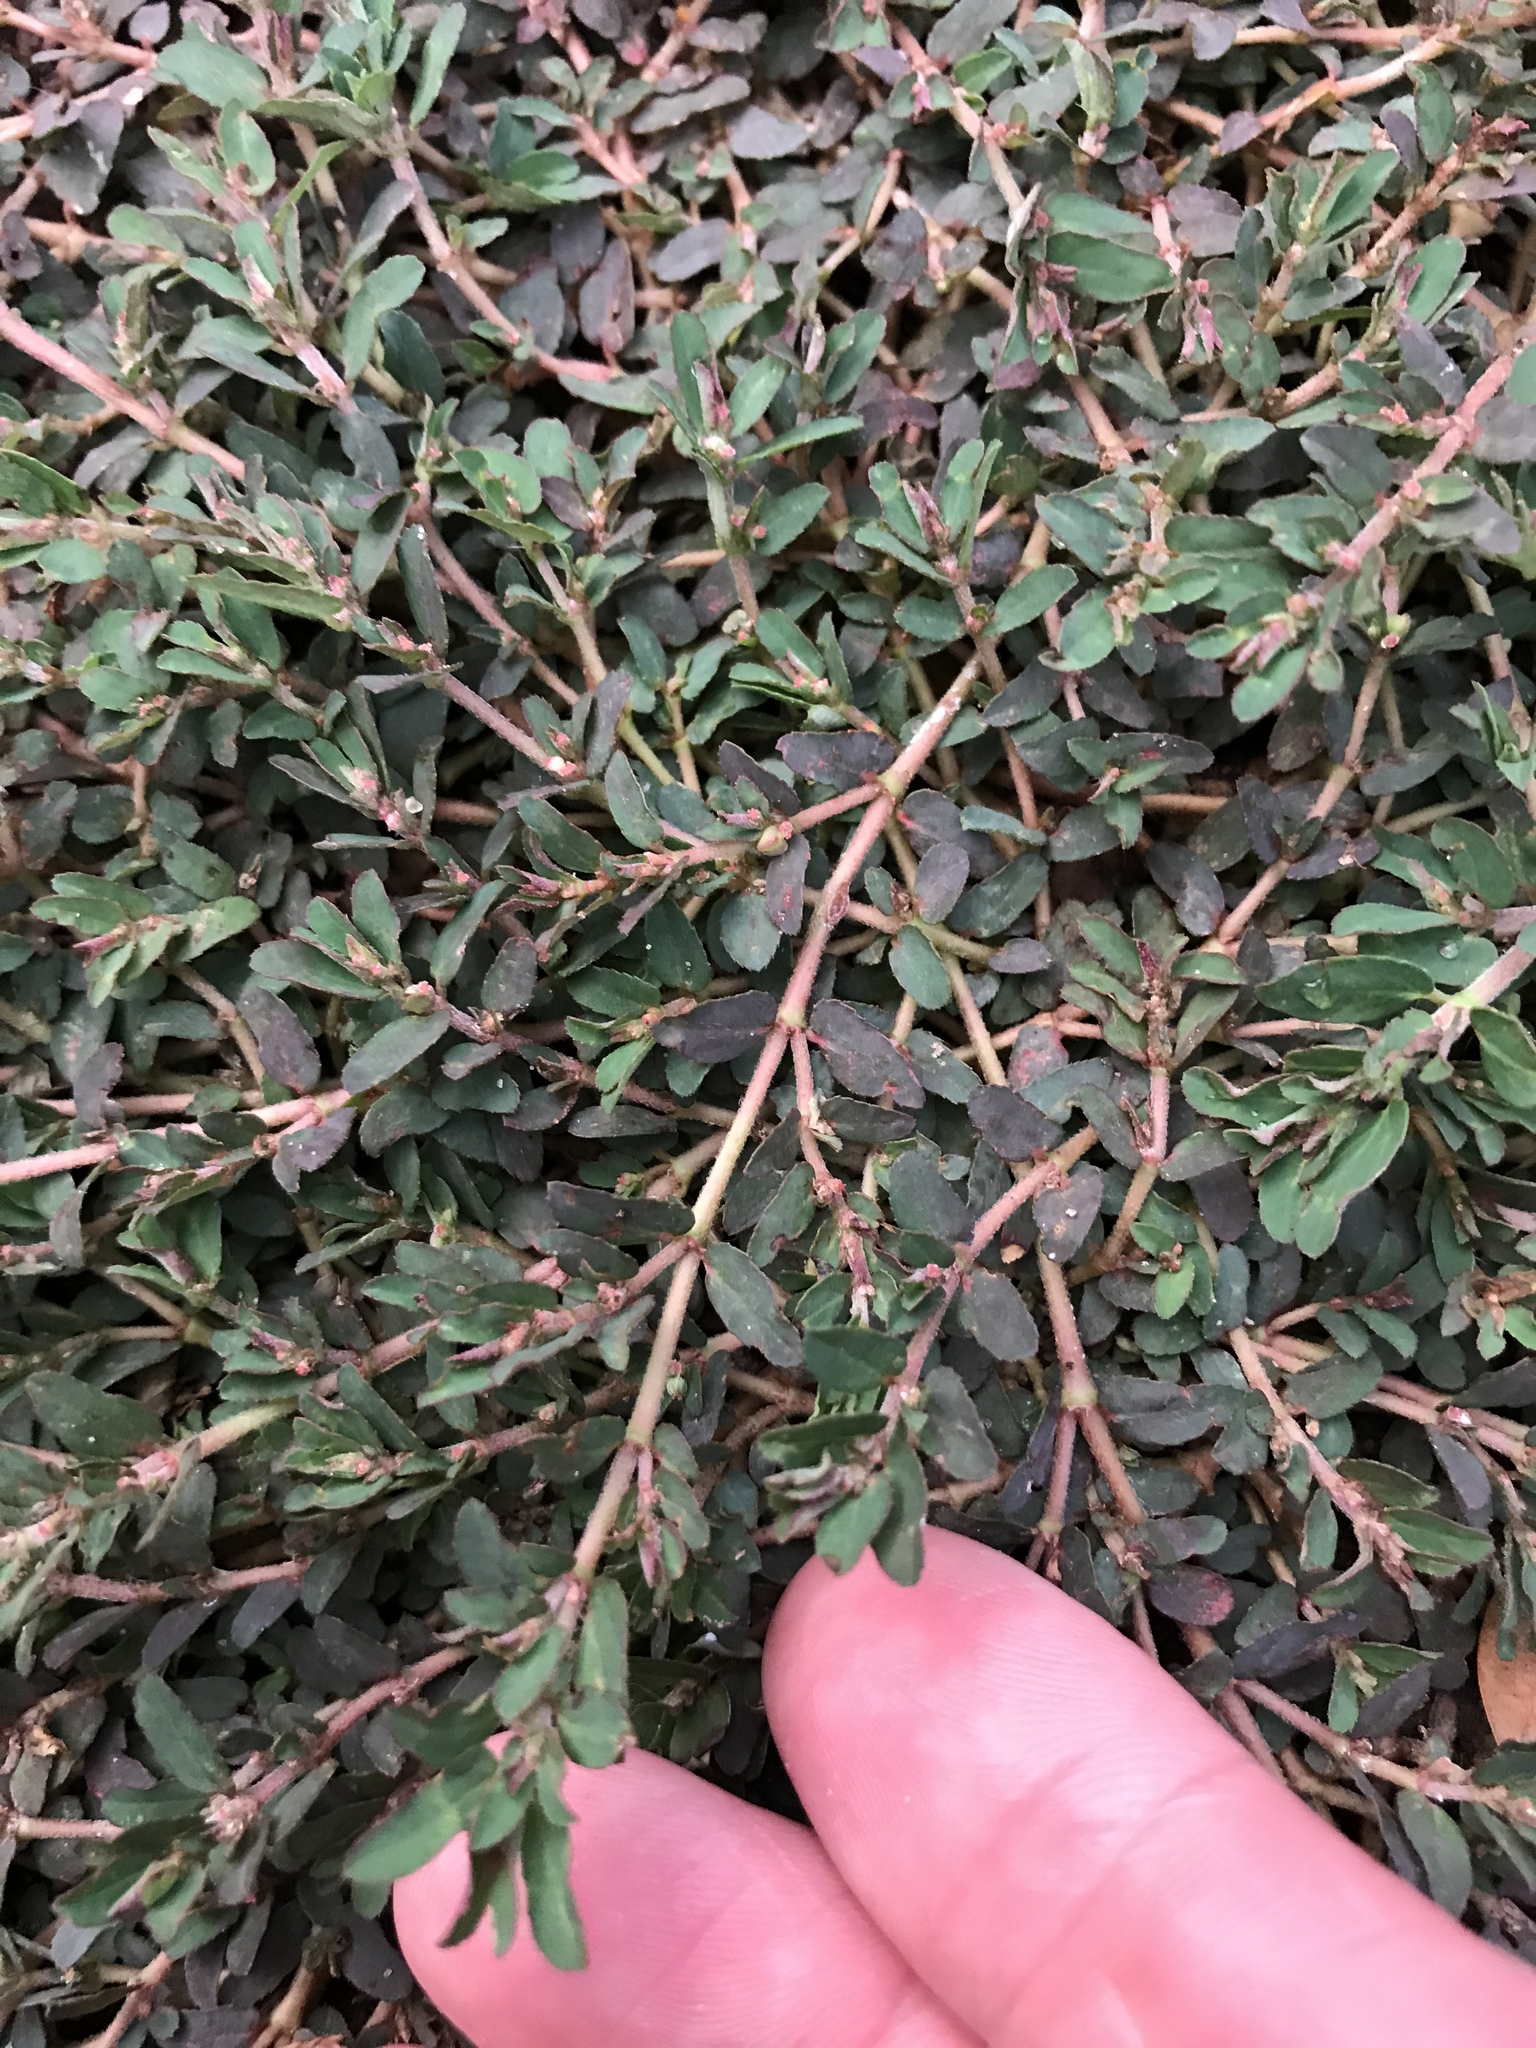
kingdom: Plantae
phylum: Tracheophyta
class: Magnoliopsida
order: Malpighiales
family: Euphorbiaceae
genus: Euphorbia
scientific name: Euphorbia maculata
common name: Spotted spurge
